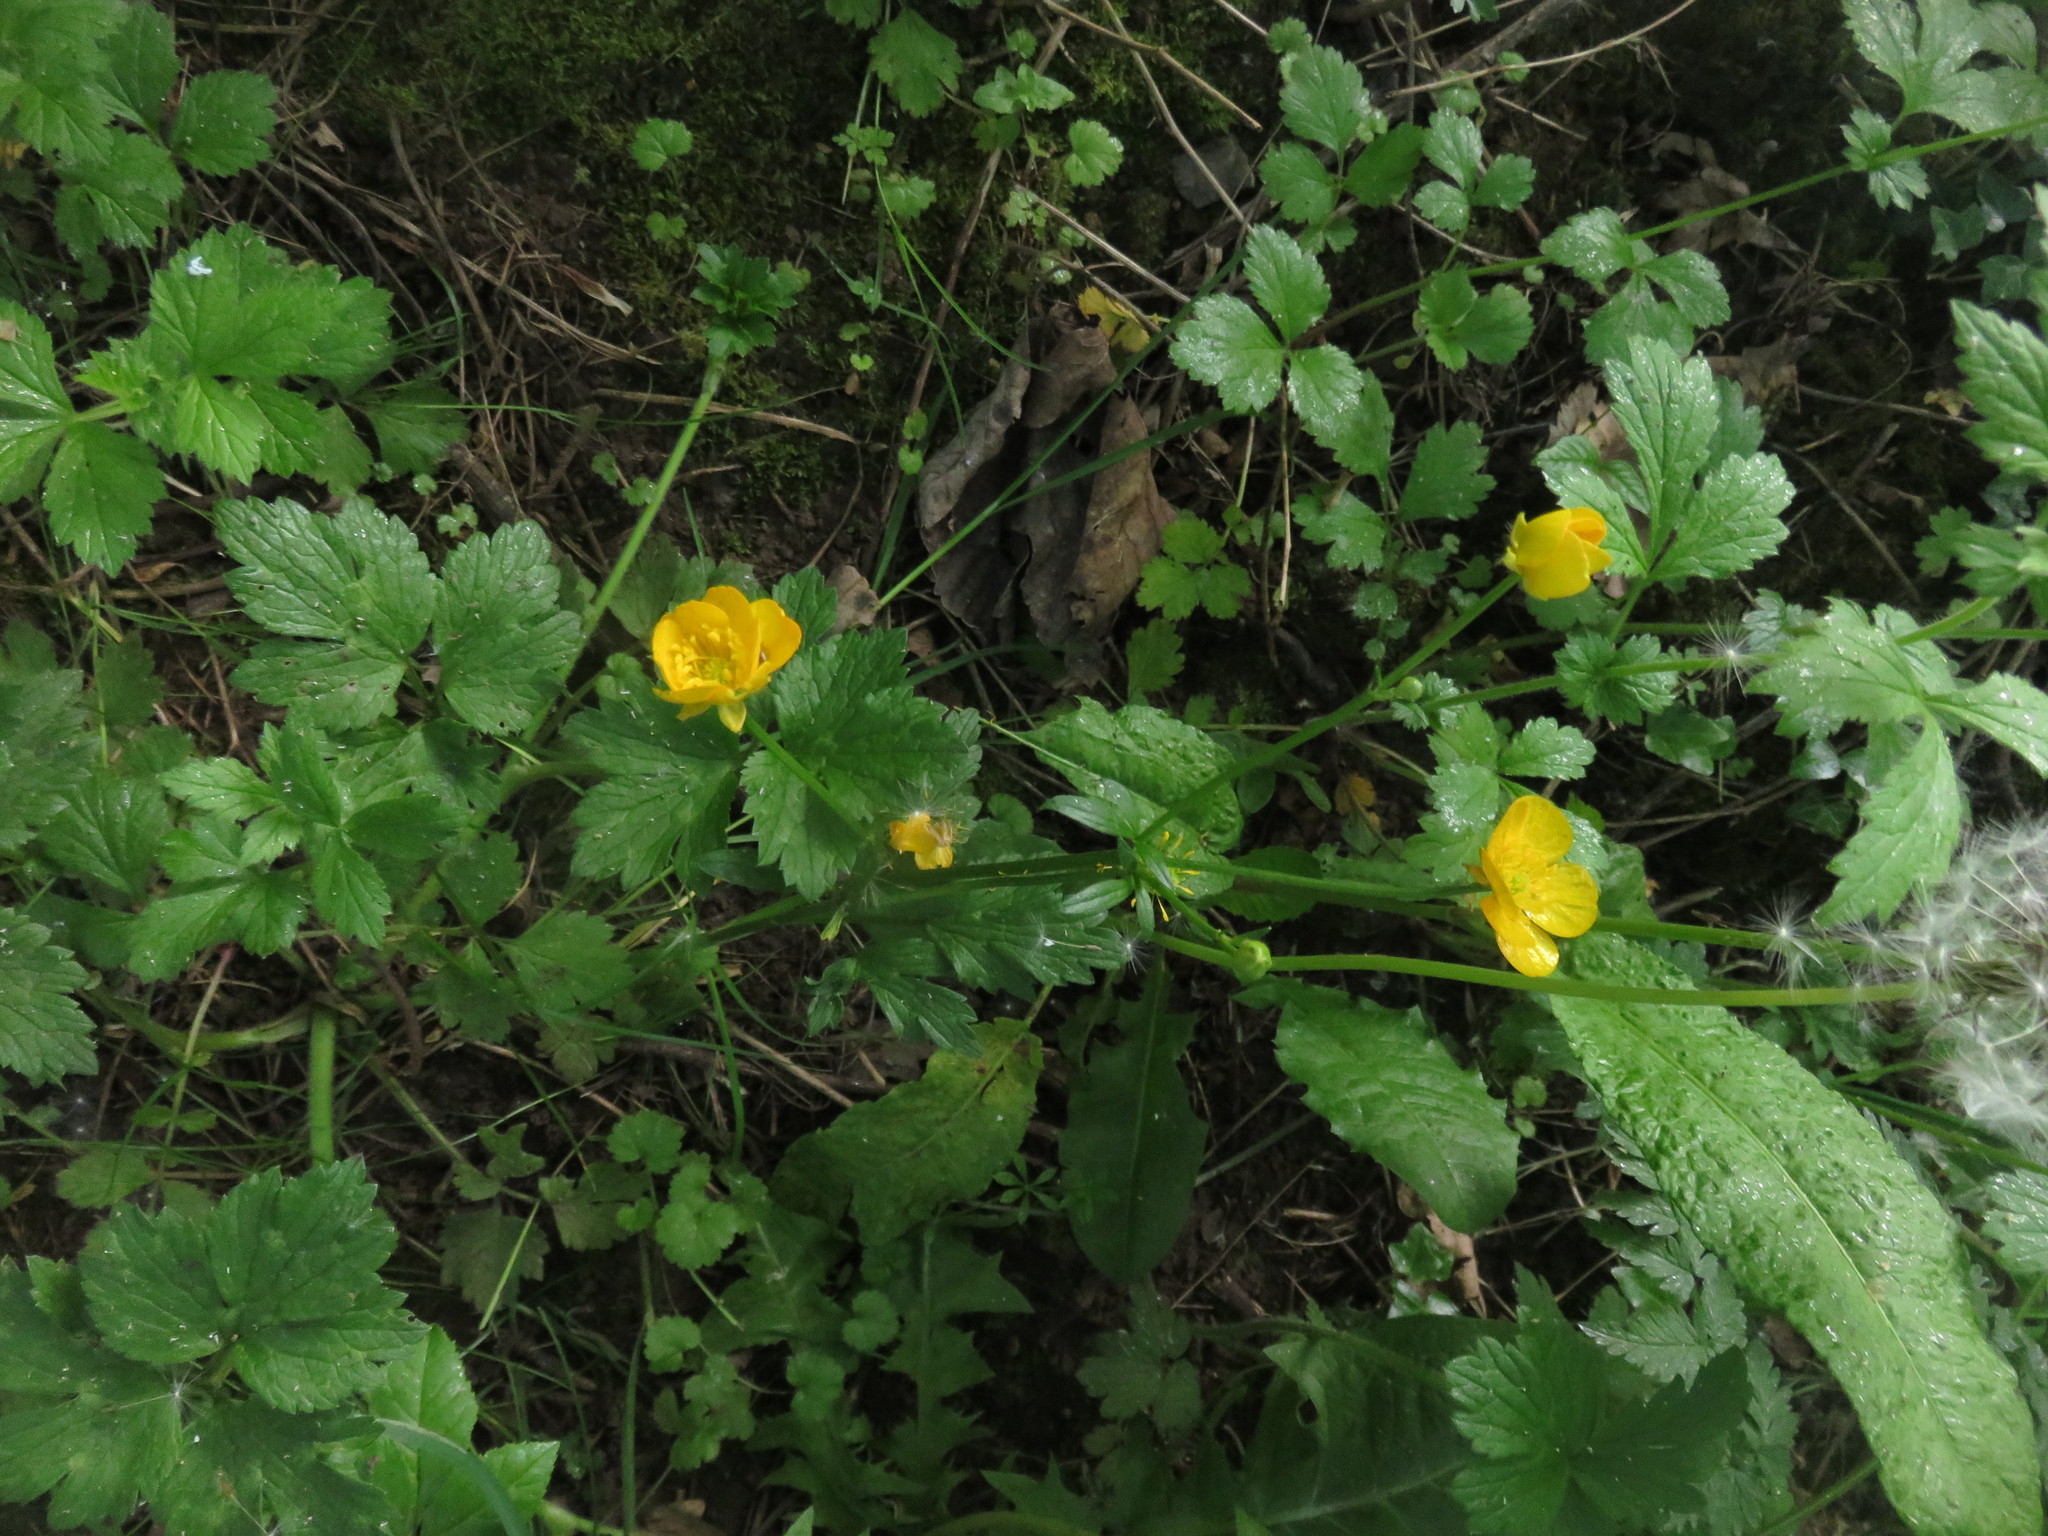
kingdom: Plantae
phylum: Tracheophyta
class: Magnoliopsida
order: Ranunculales
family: Ranunculaceae
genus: Ranunculus
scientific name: Ranunculus repens
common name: Creeping buttercup
